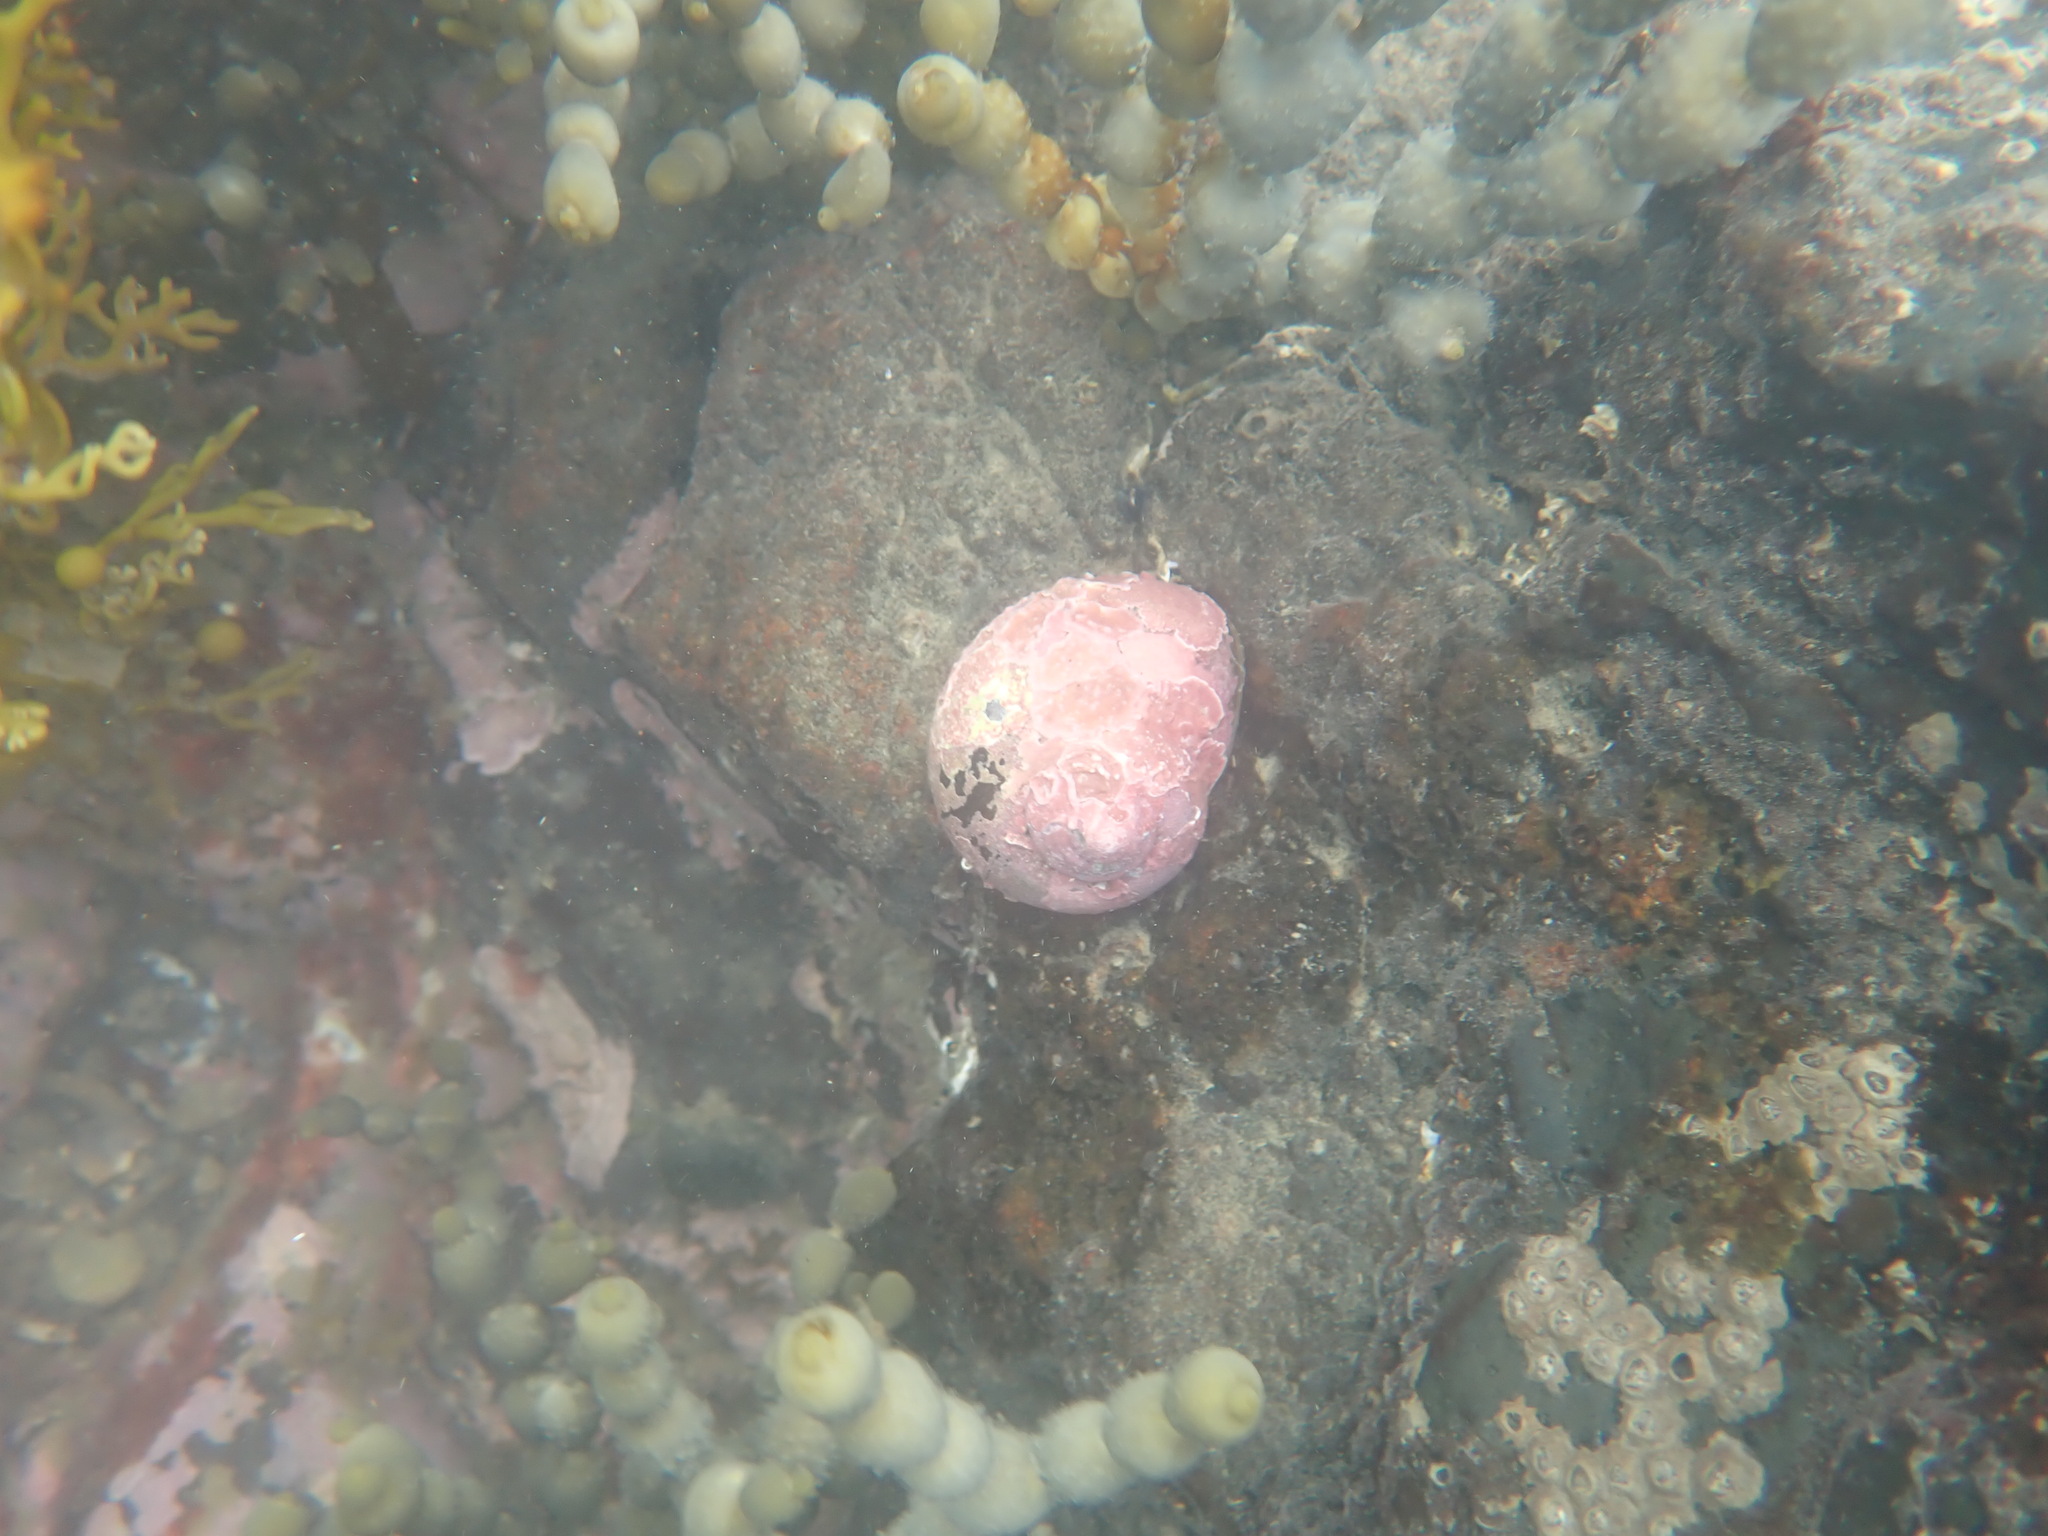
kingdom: Animalia
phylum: Mollusca
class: Gastropoda
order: Trochida
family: Turbinidae
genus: Lunella
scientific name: Lunella smaragda
